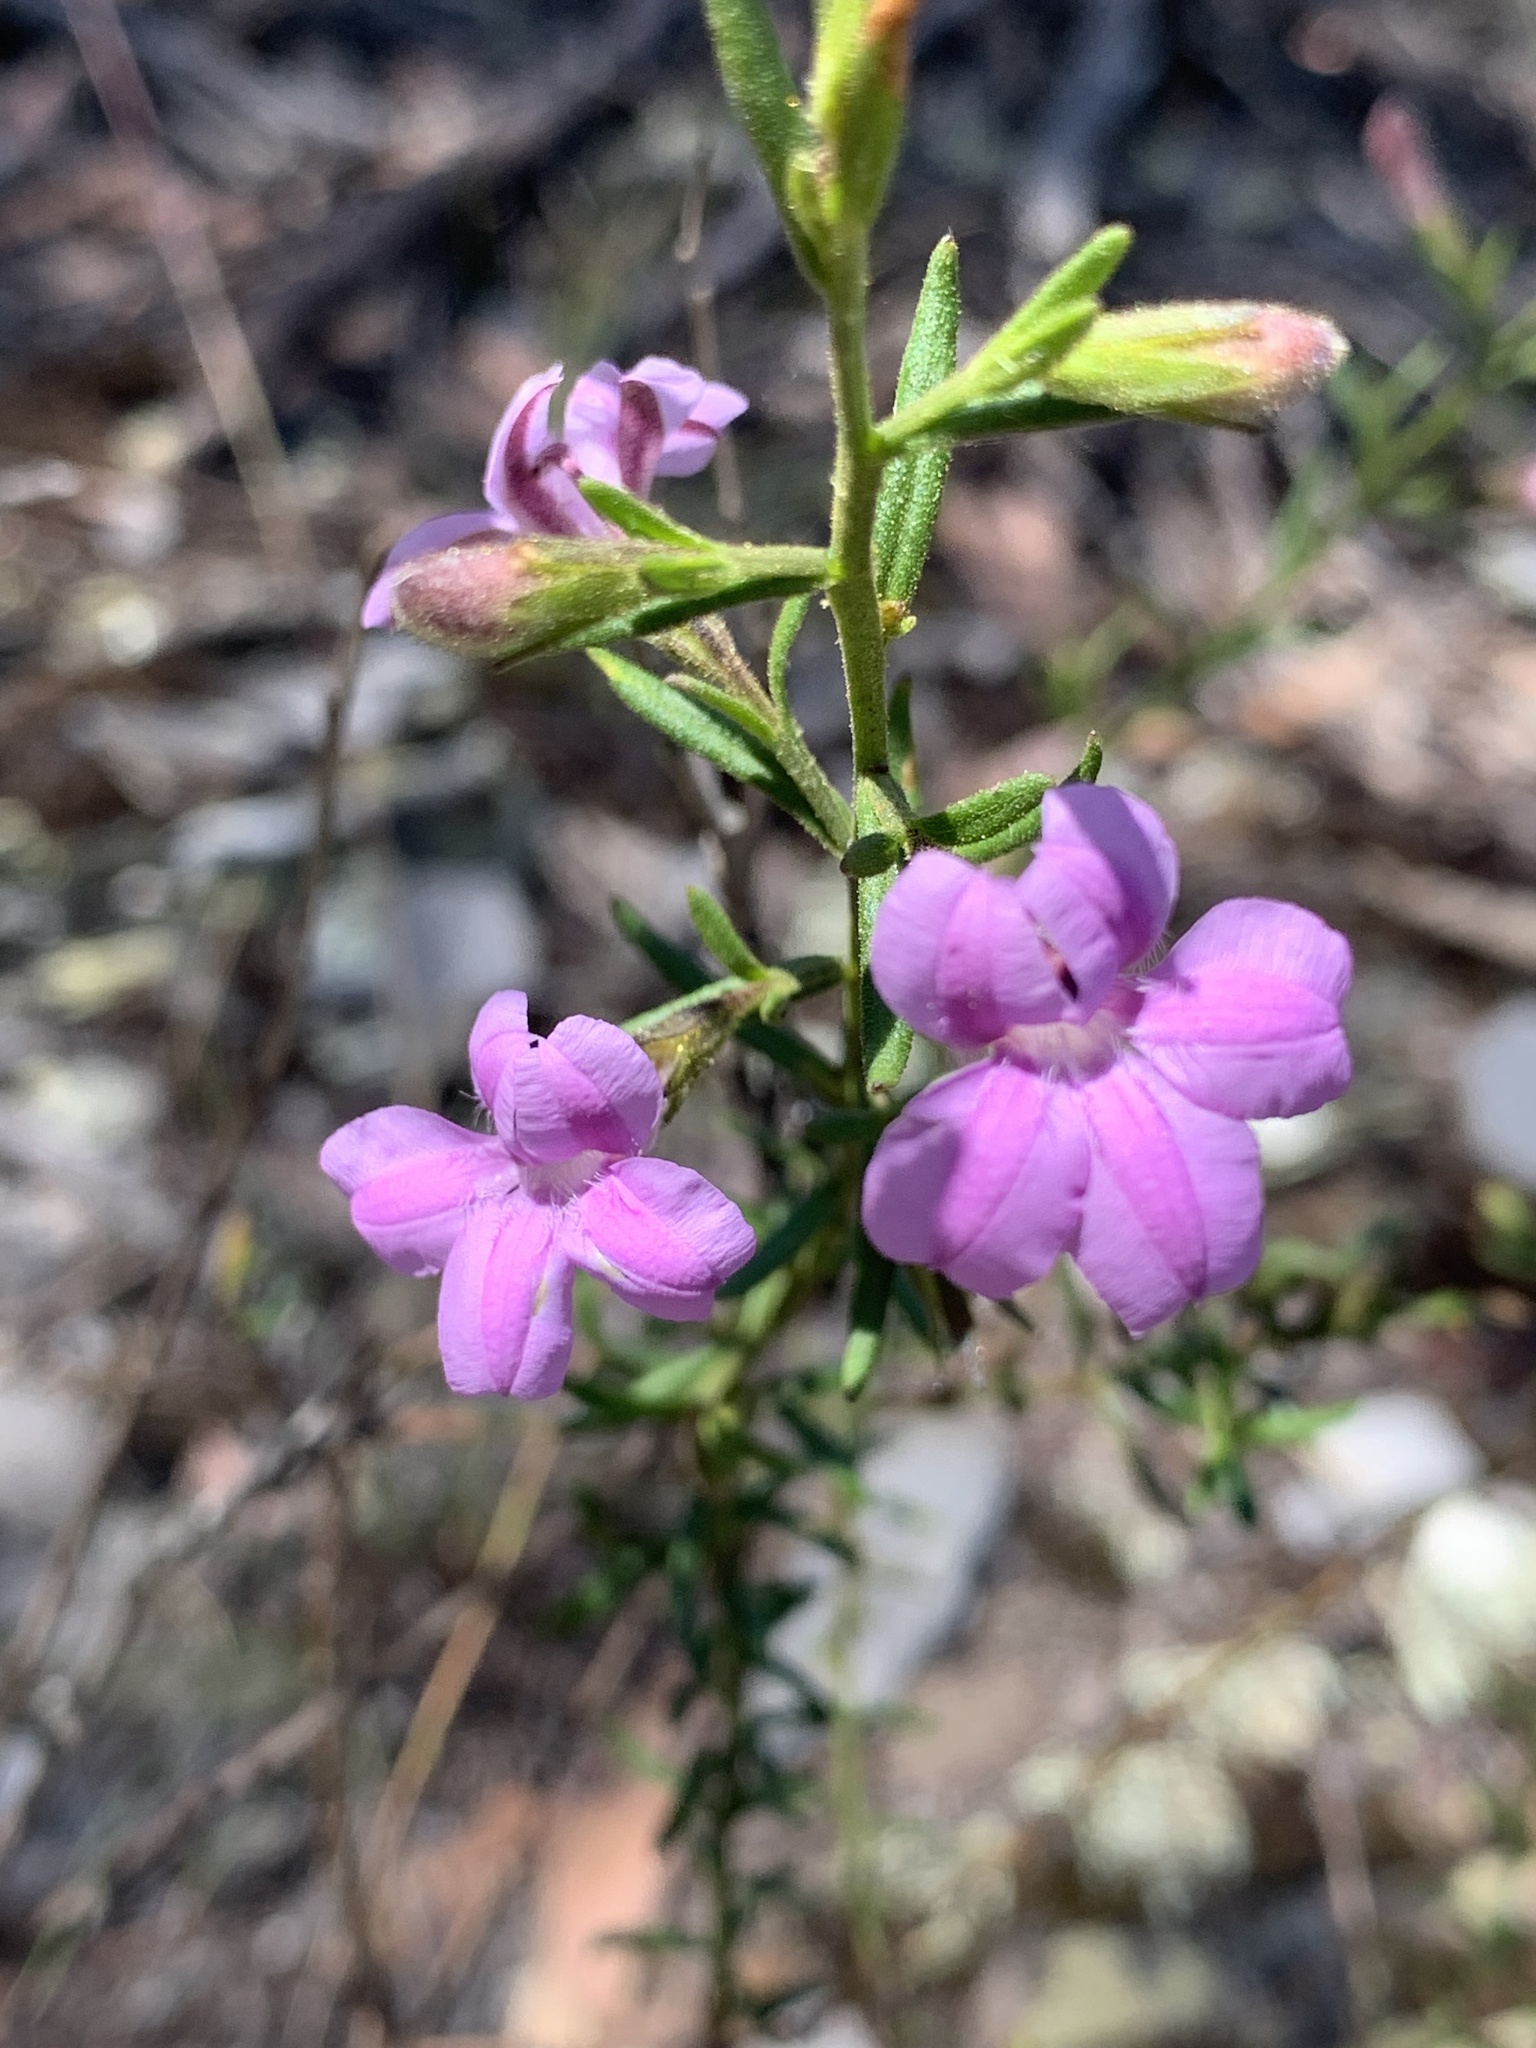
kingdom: Plantae
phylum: Tracheophyta
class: Magnoliopsida
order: Asterales
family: Goodeniaceae
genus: Goodenia
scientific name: Goodenia barbata
